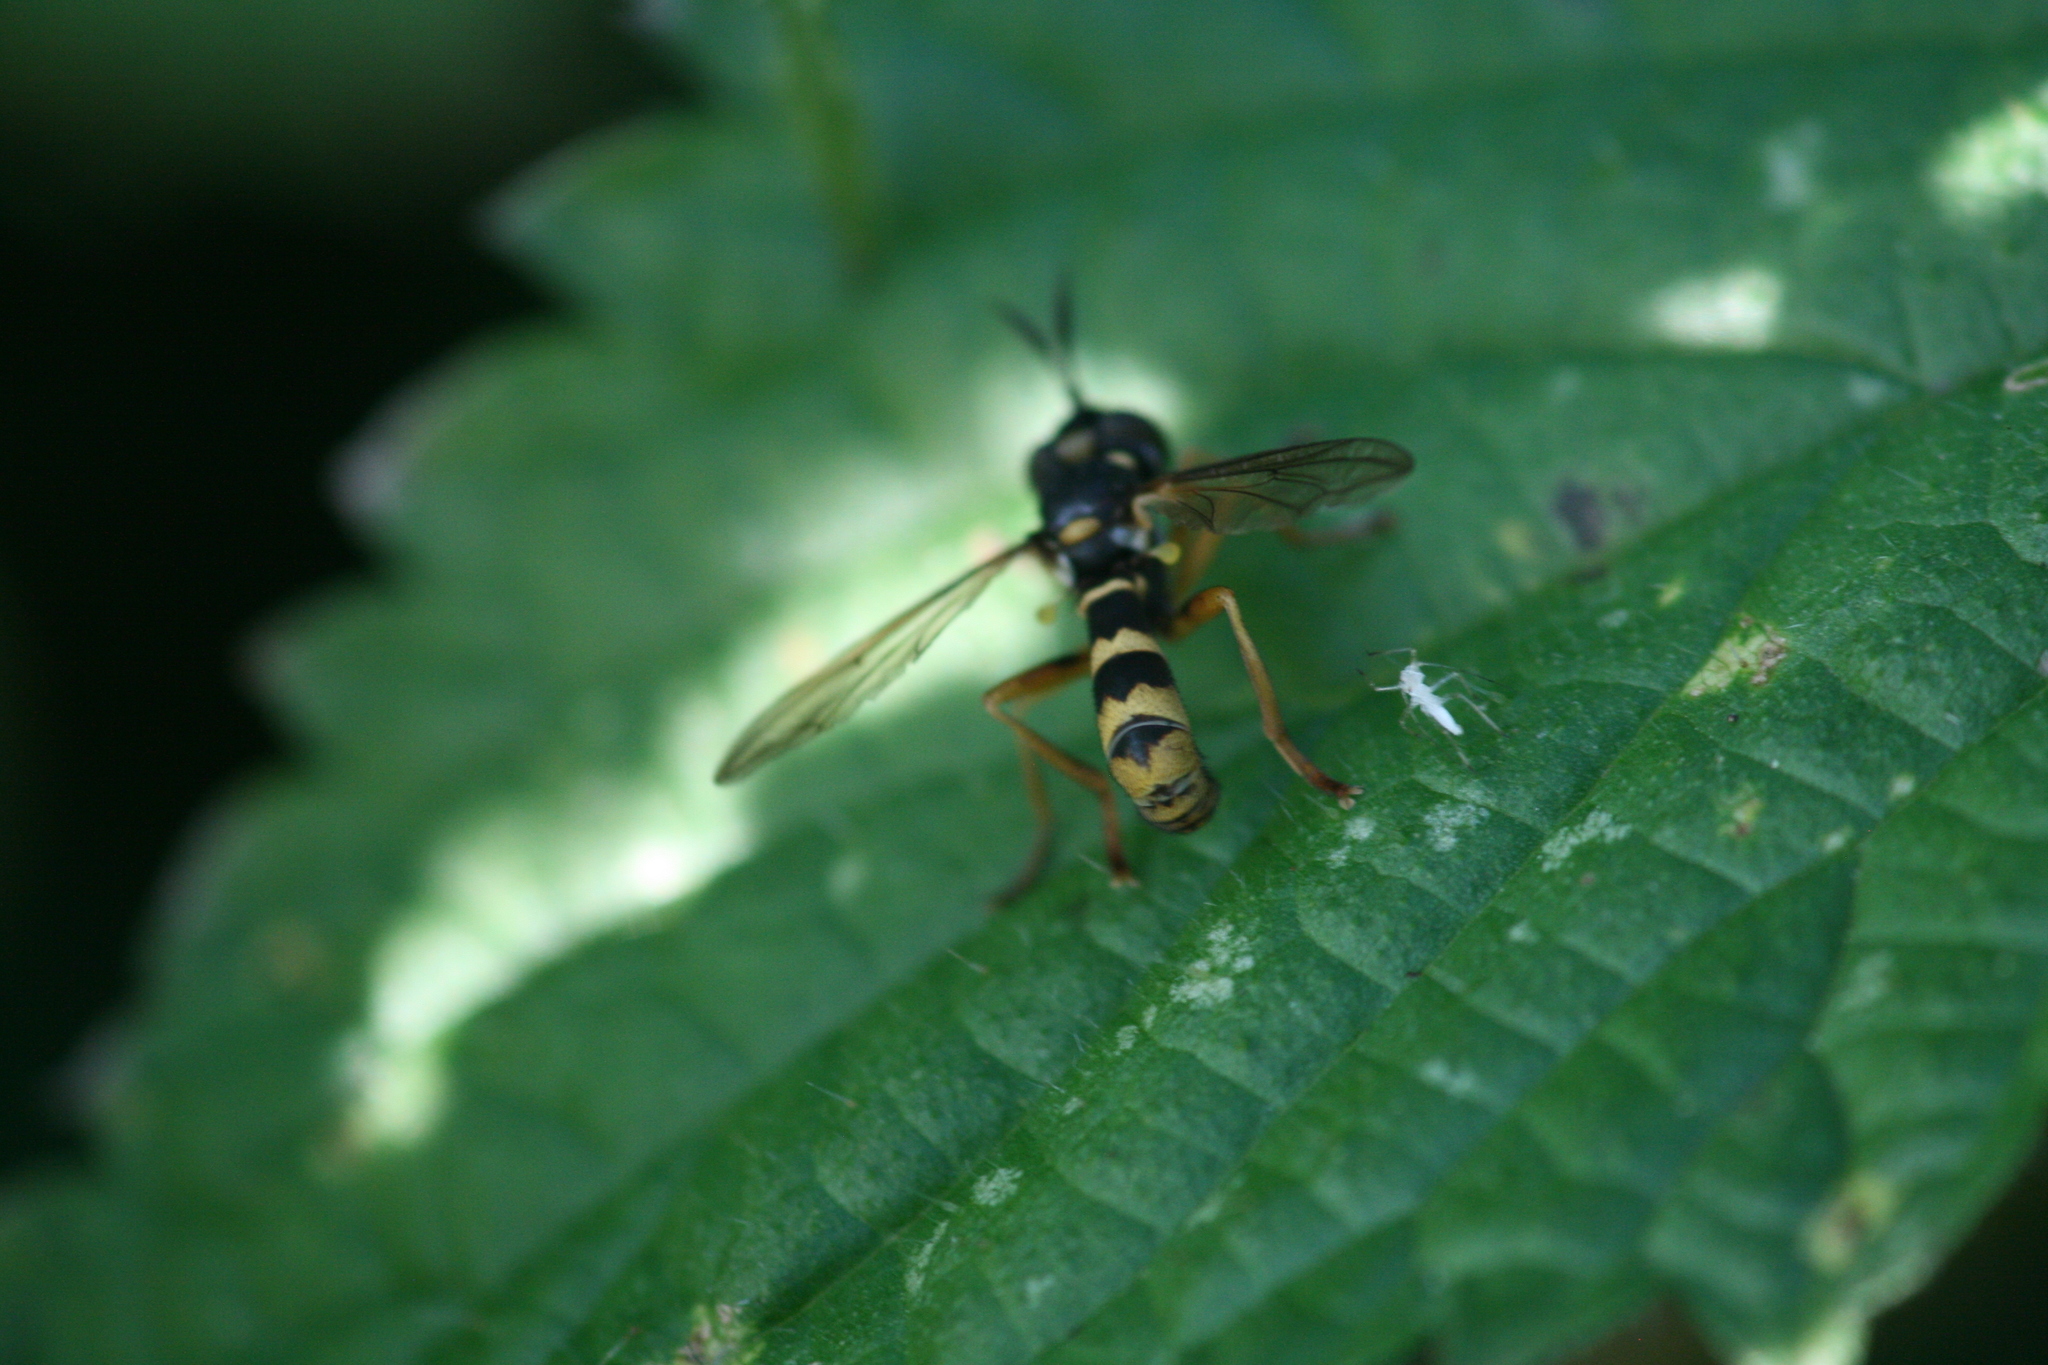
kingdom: Animalia
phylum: Arthropoda
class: Insecta
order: Diptera
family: Conopidae
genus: Leopoldius
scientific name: Leopoldius signatus
